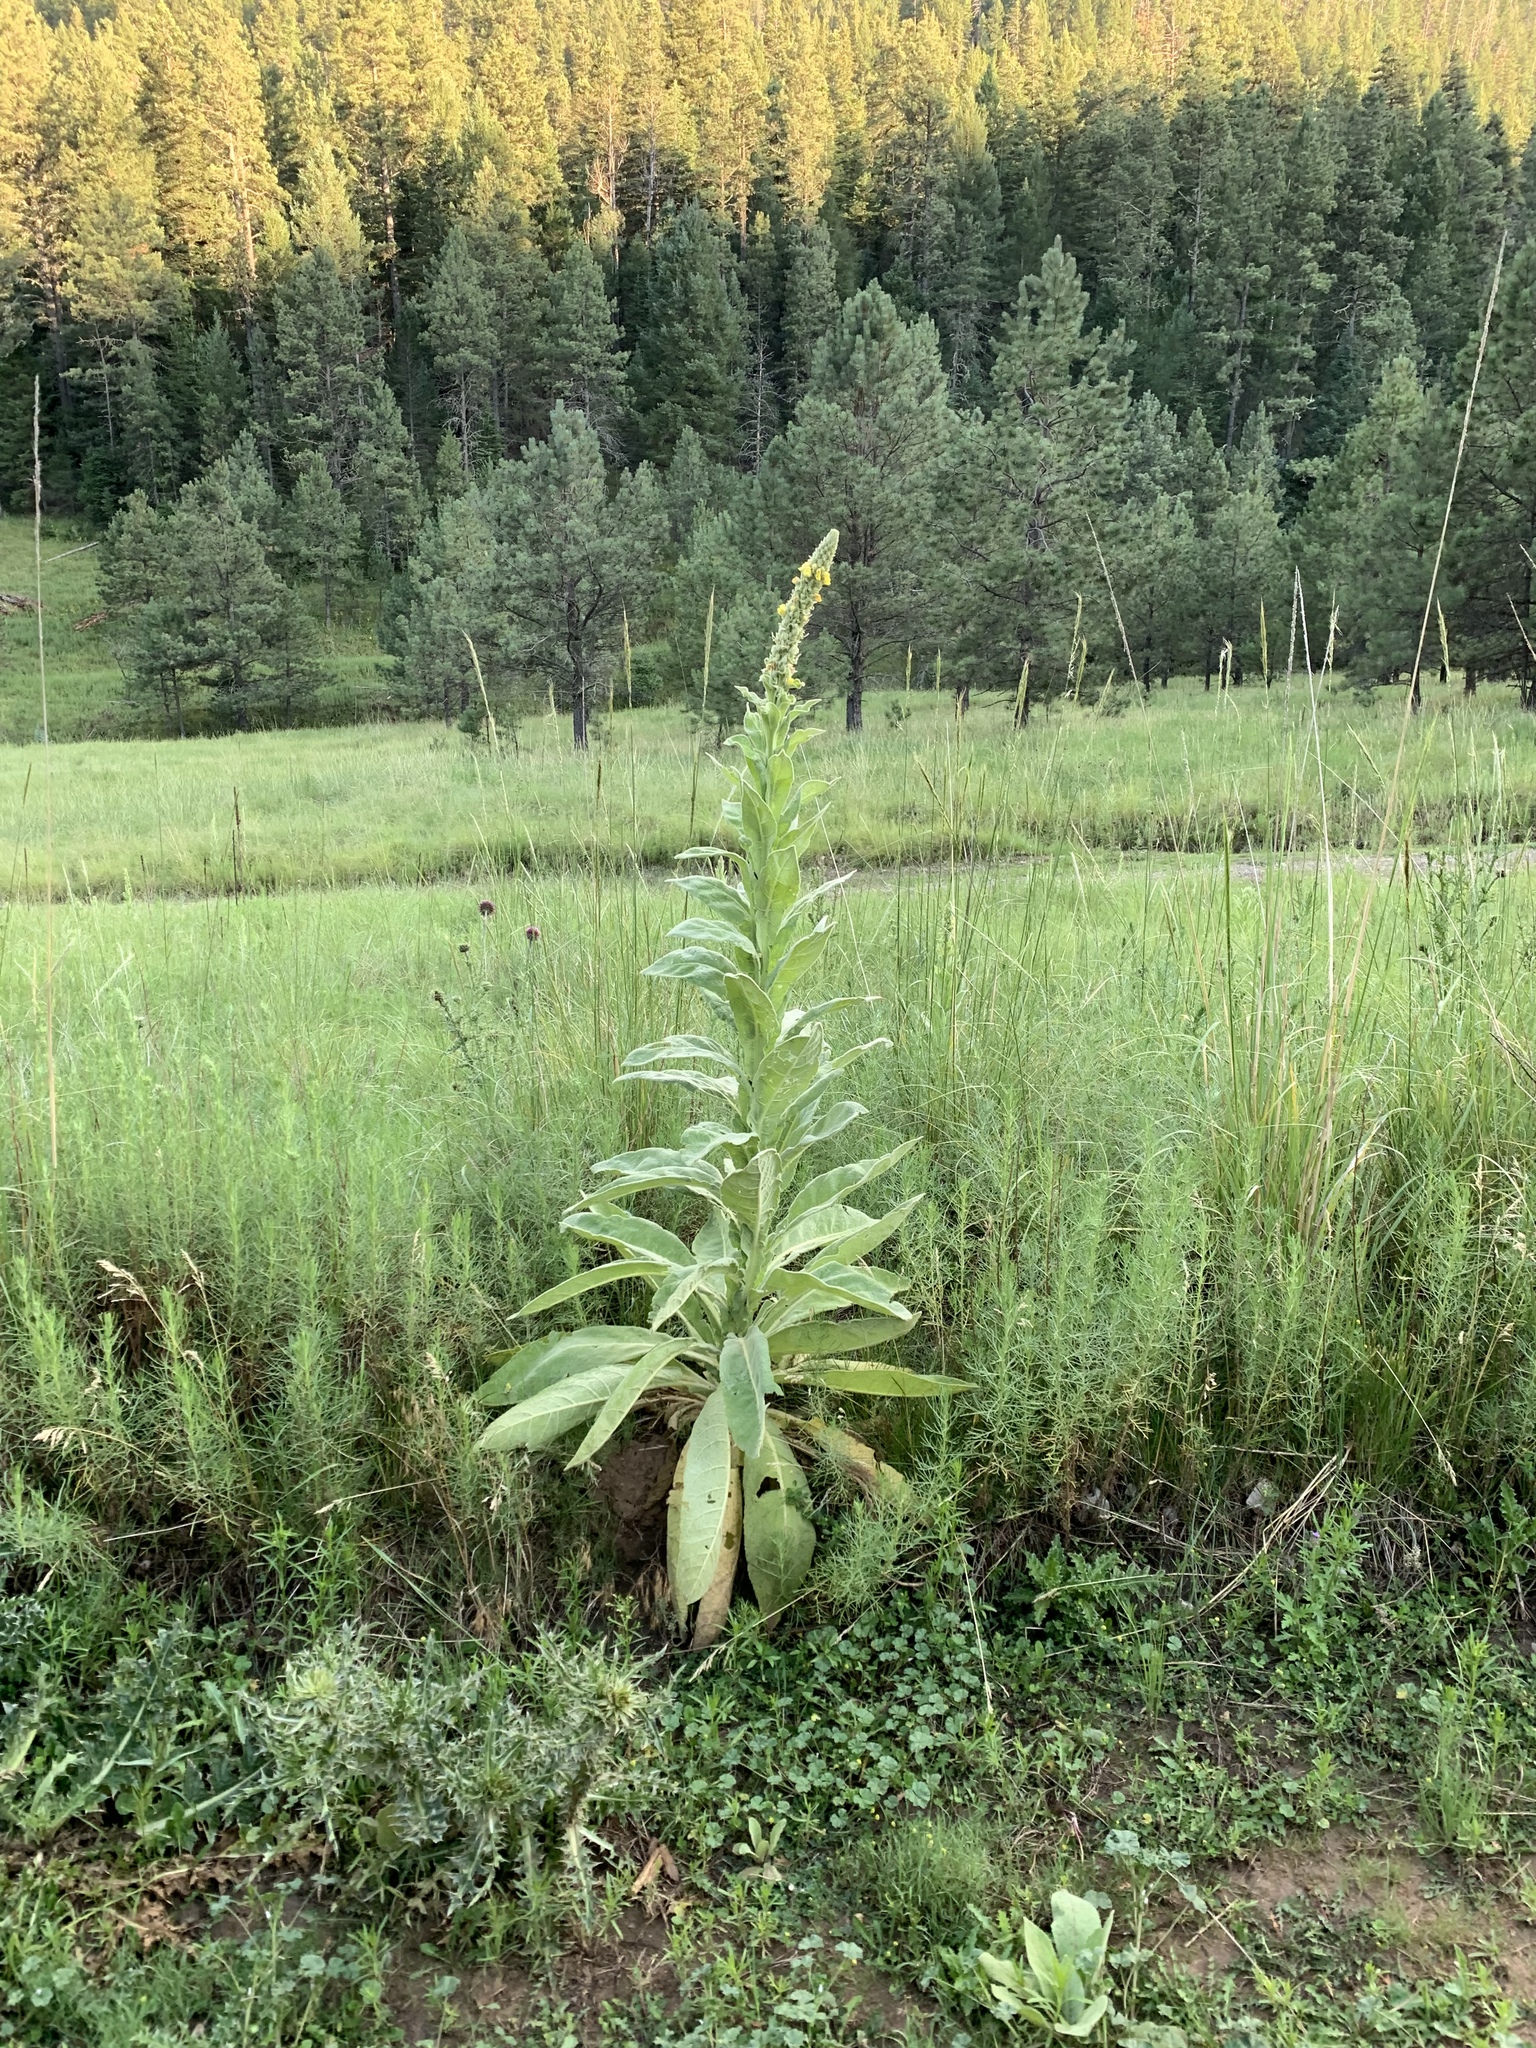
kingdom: Plantae
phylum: Tracheophyta
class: Magnoliopsida
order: Lamiales
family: Scrophulariaceae
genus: Verbascum
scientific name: Verbascum thapsus
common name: Common mullein
